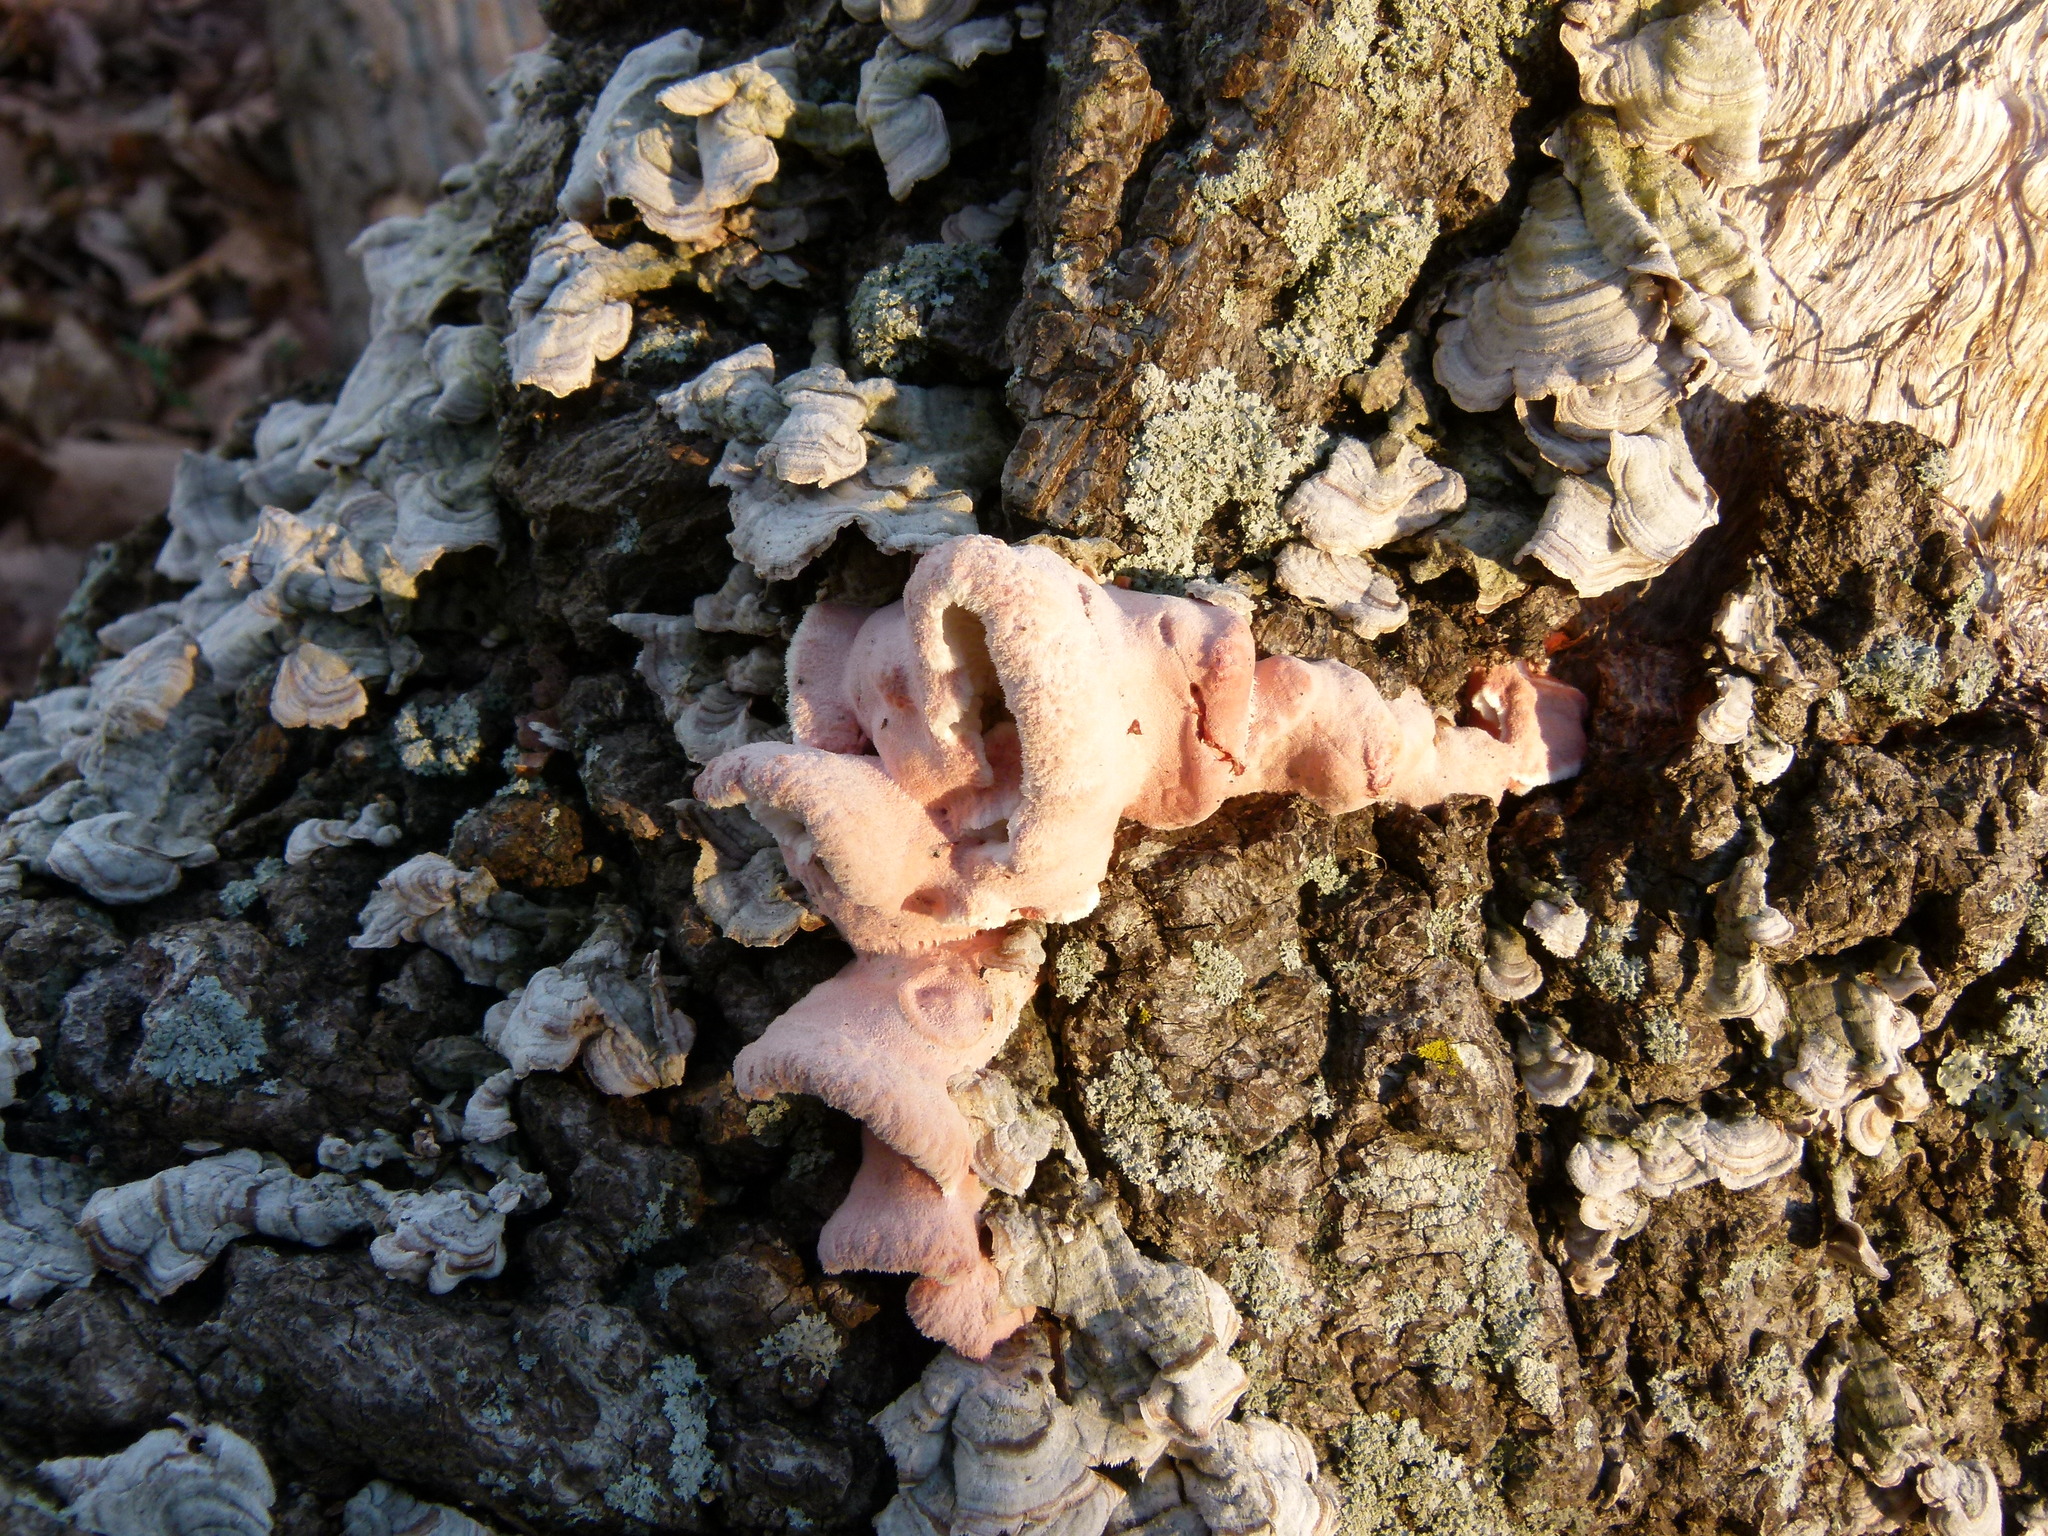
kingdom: Fungi
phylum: Basidiomycota
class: Agaricomycetes
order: Polyporales
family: Irpicaceae
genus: Byssomerulius
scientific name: Byssomerulius incarnatus
